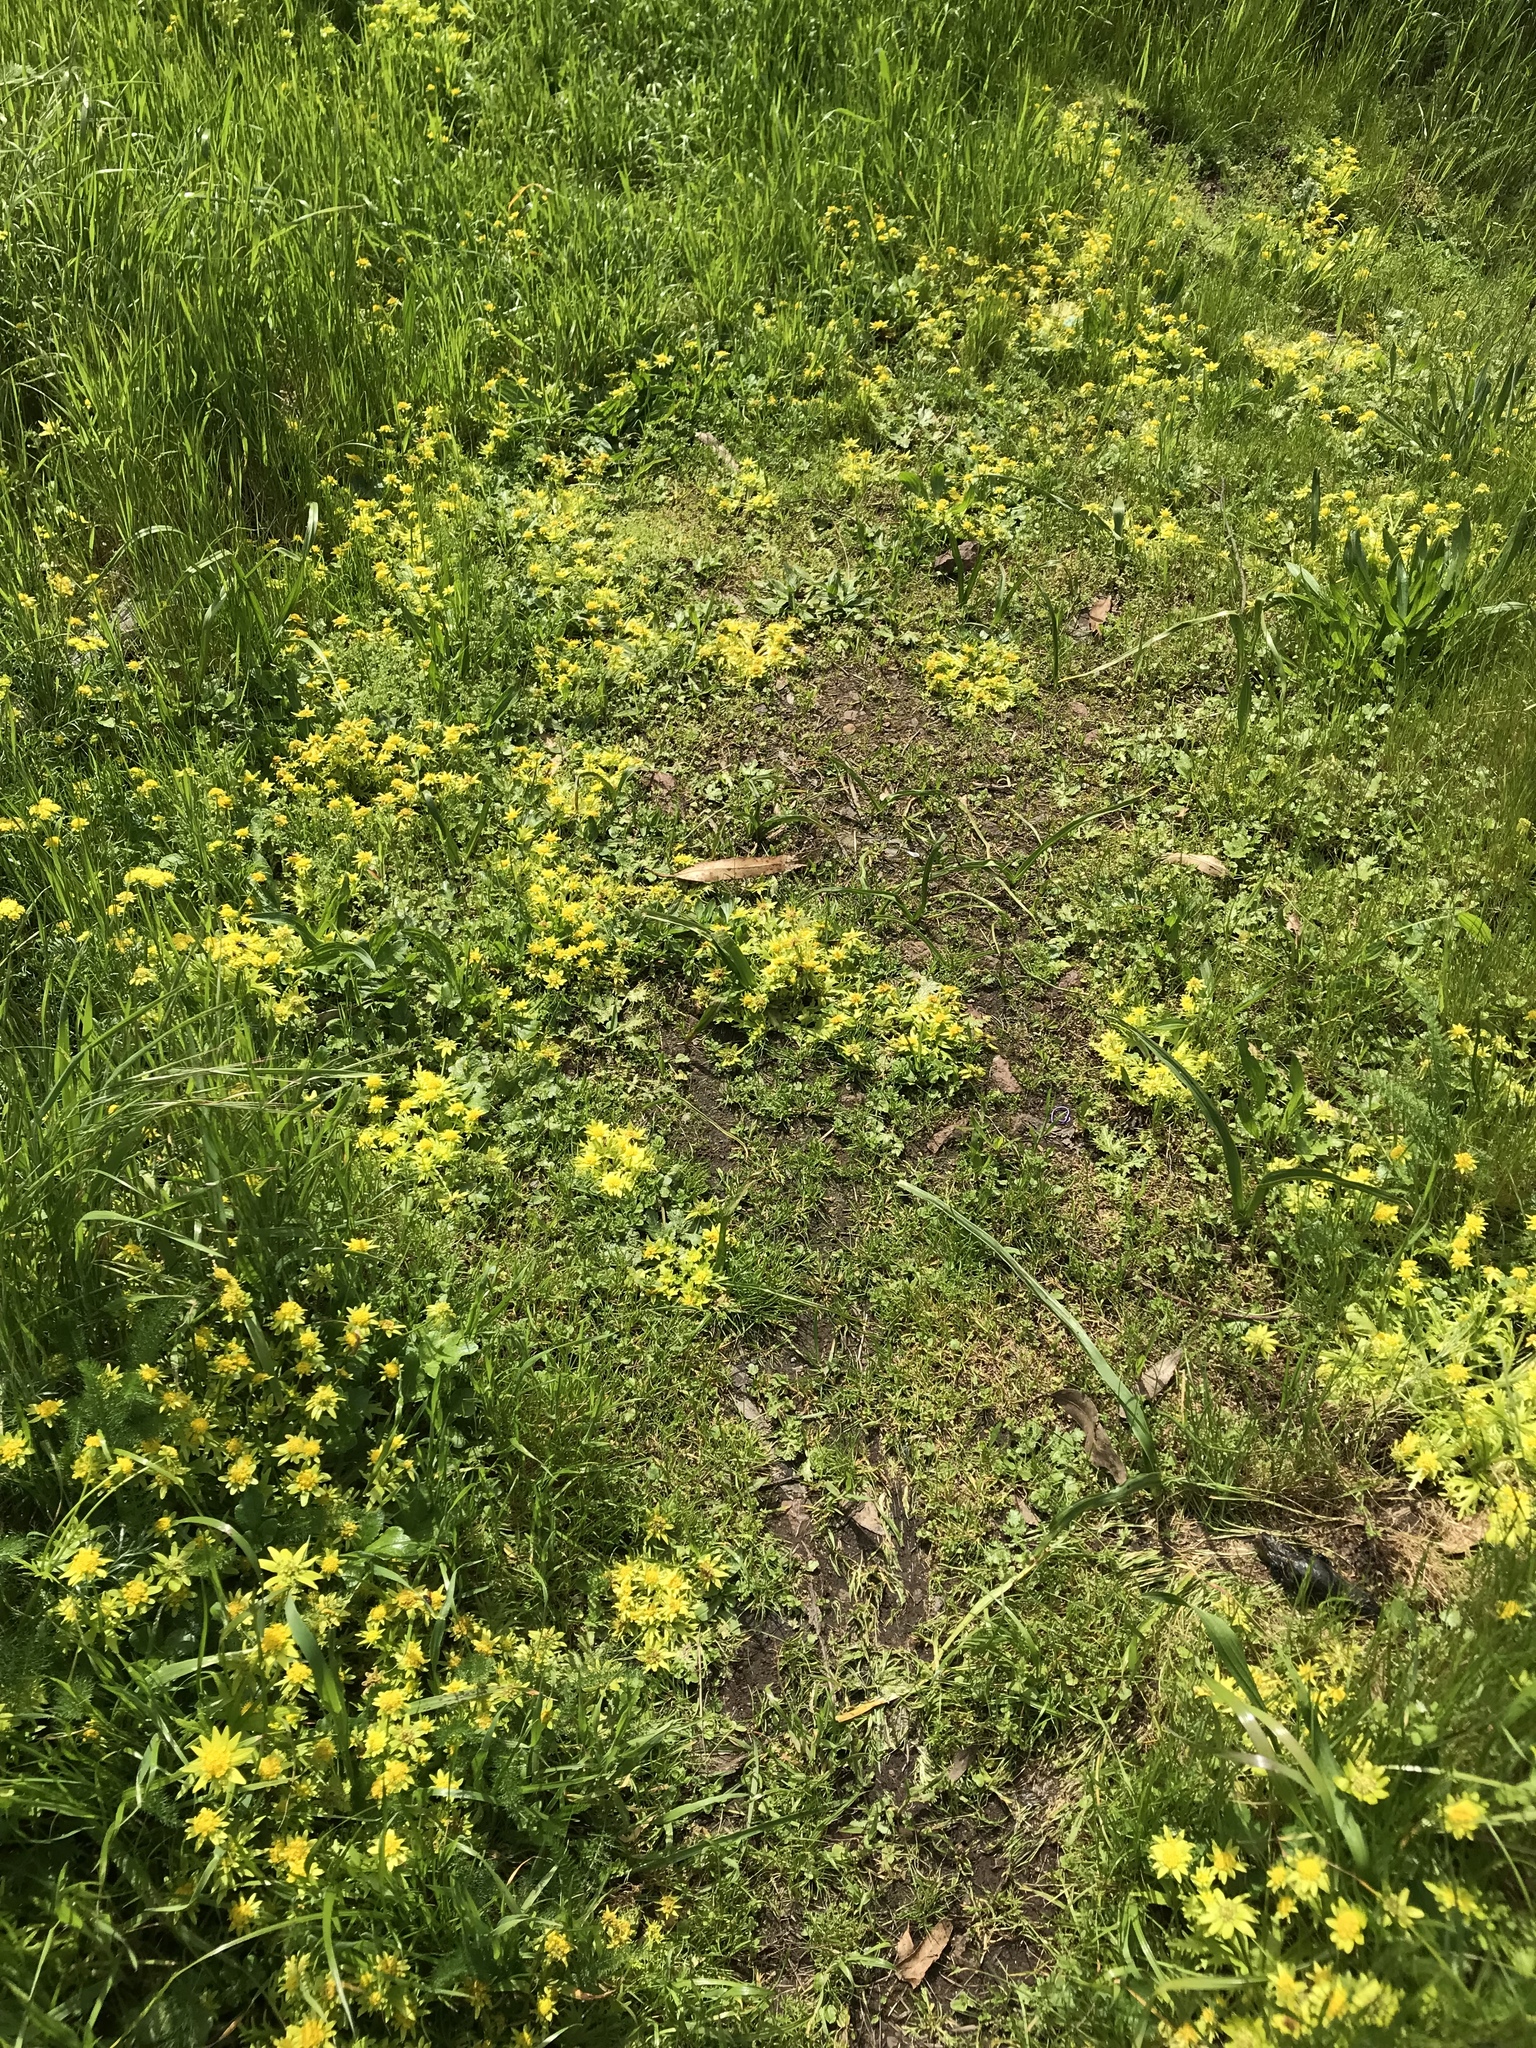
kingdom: Plantae
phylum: Tracheophyta
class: Magnoliopsida
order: Apiales
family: Apiaceae
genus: Sanicula
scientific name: Sanicula arctopoides
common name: Footsteps-of-spring
